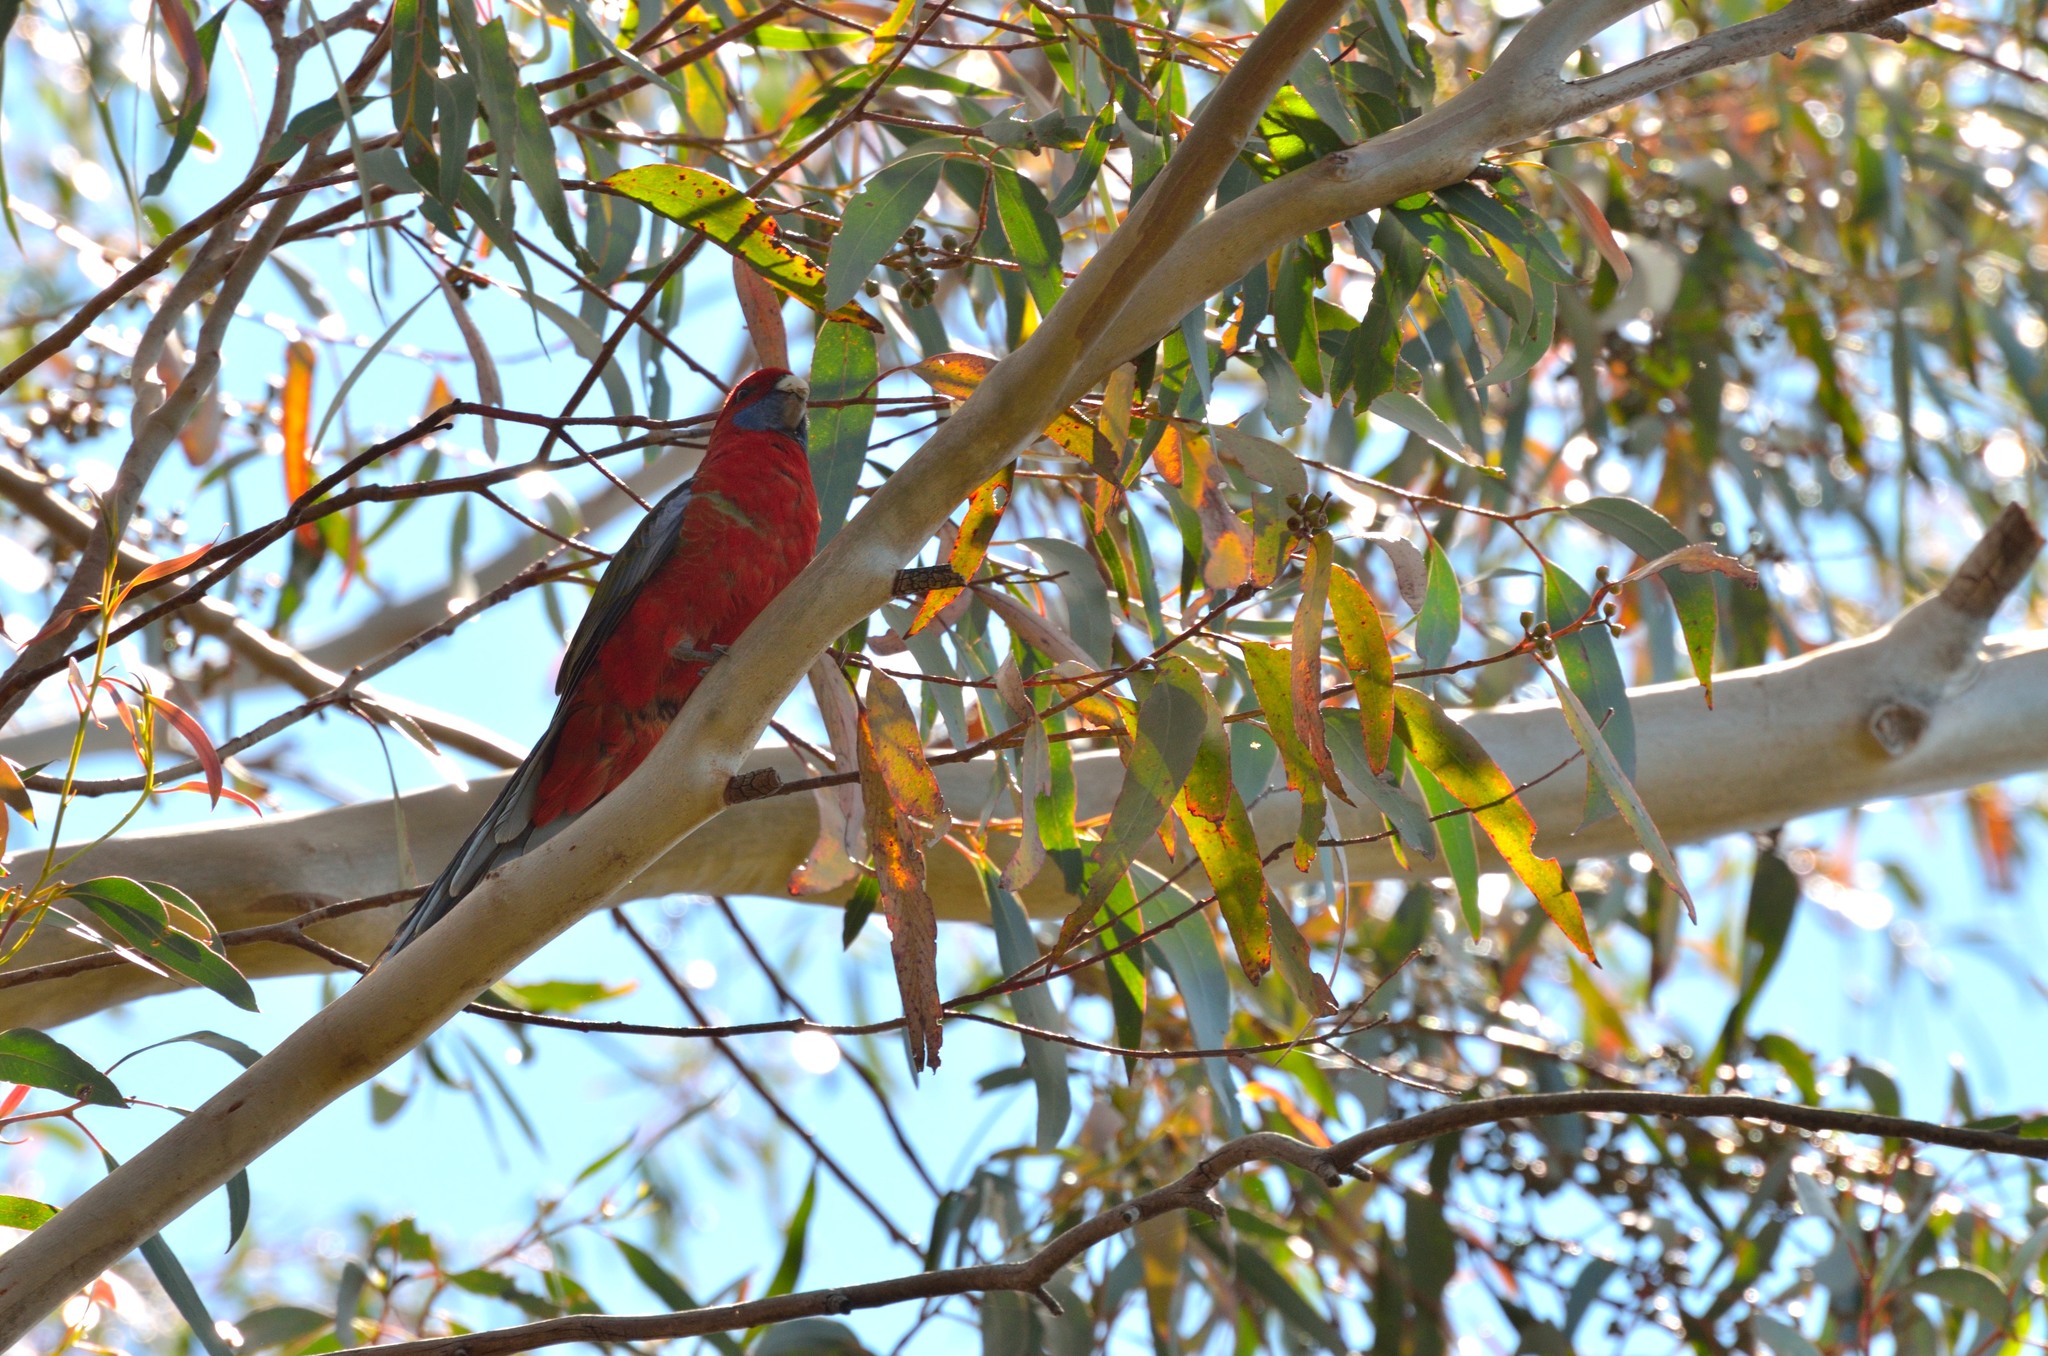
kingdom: Animalia
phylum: Chordata
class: Aves
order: Psittaciformes
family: Psittacidae
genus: Platycercus
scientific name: Platycercus elegans
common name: Crimson rosella
